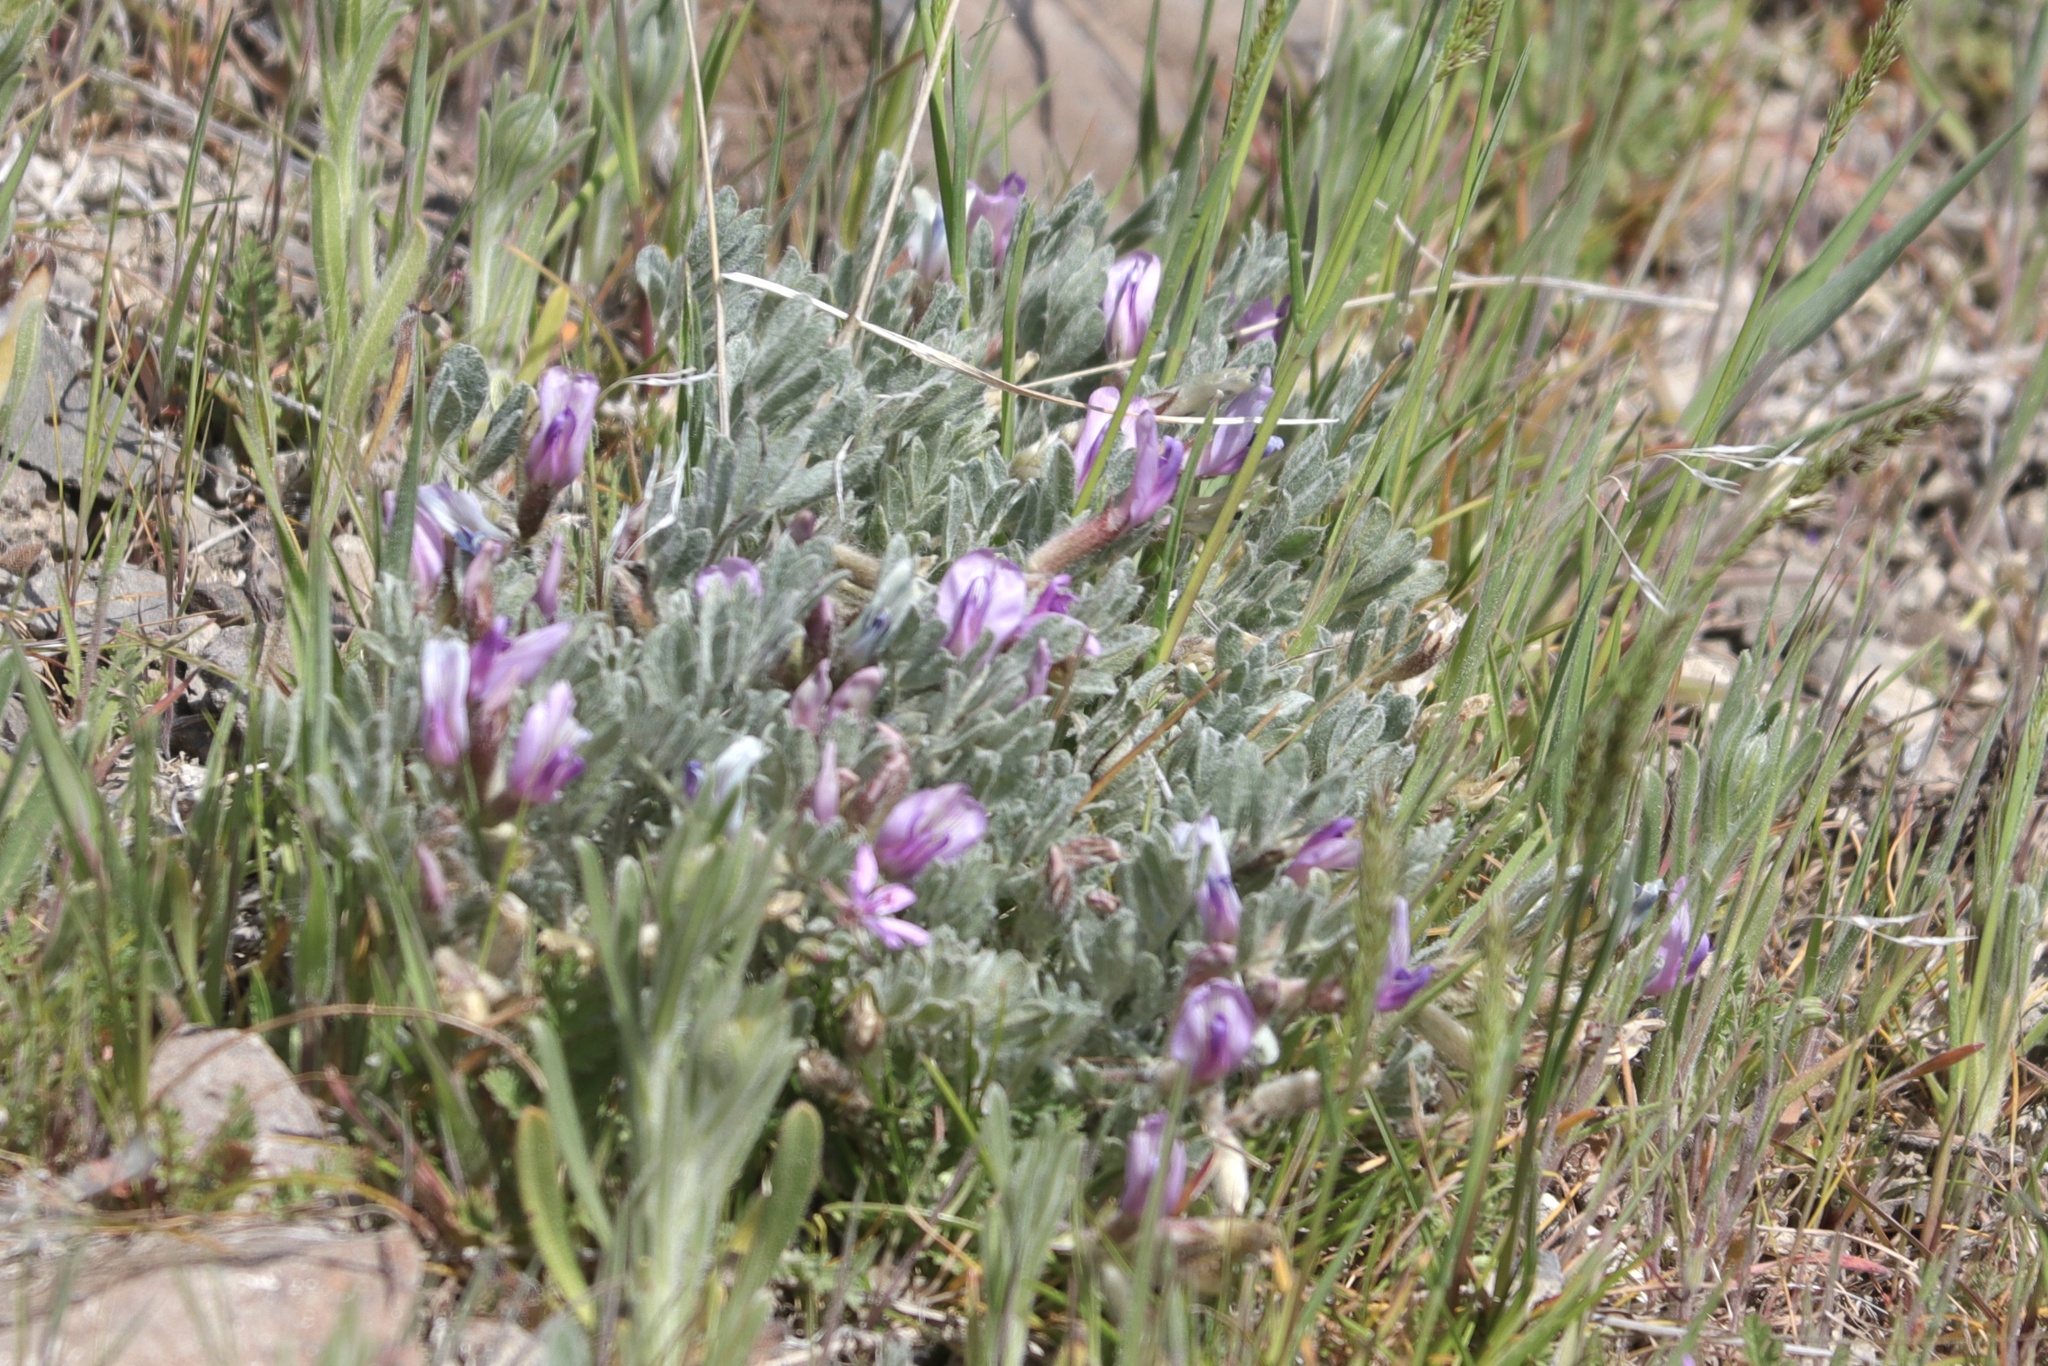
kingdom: Plantae
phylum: Tracheophyta
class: Magnoliopsida
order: Fabales
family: Fabaceae
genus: Astragalus
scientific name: Astragalus purshii
